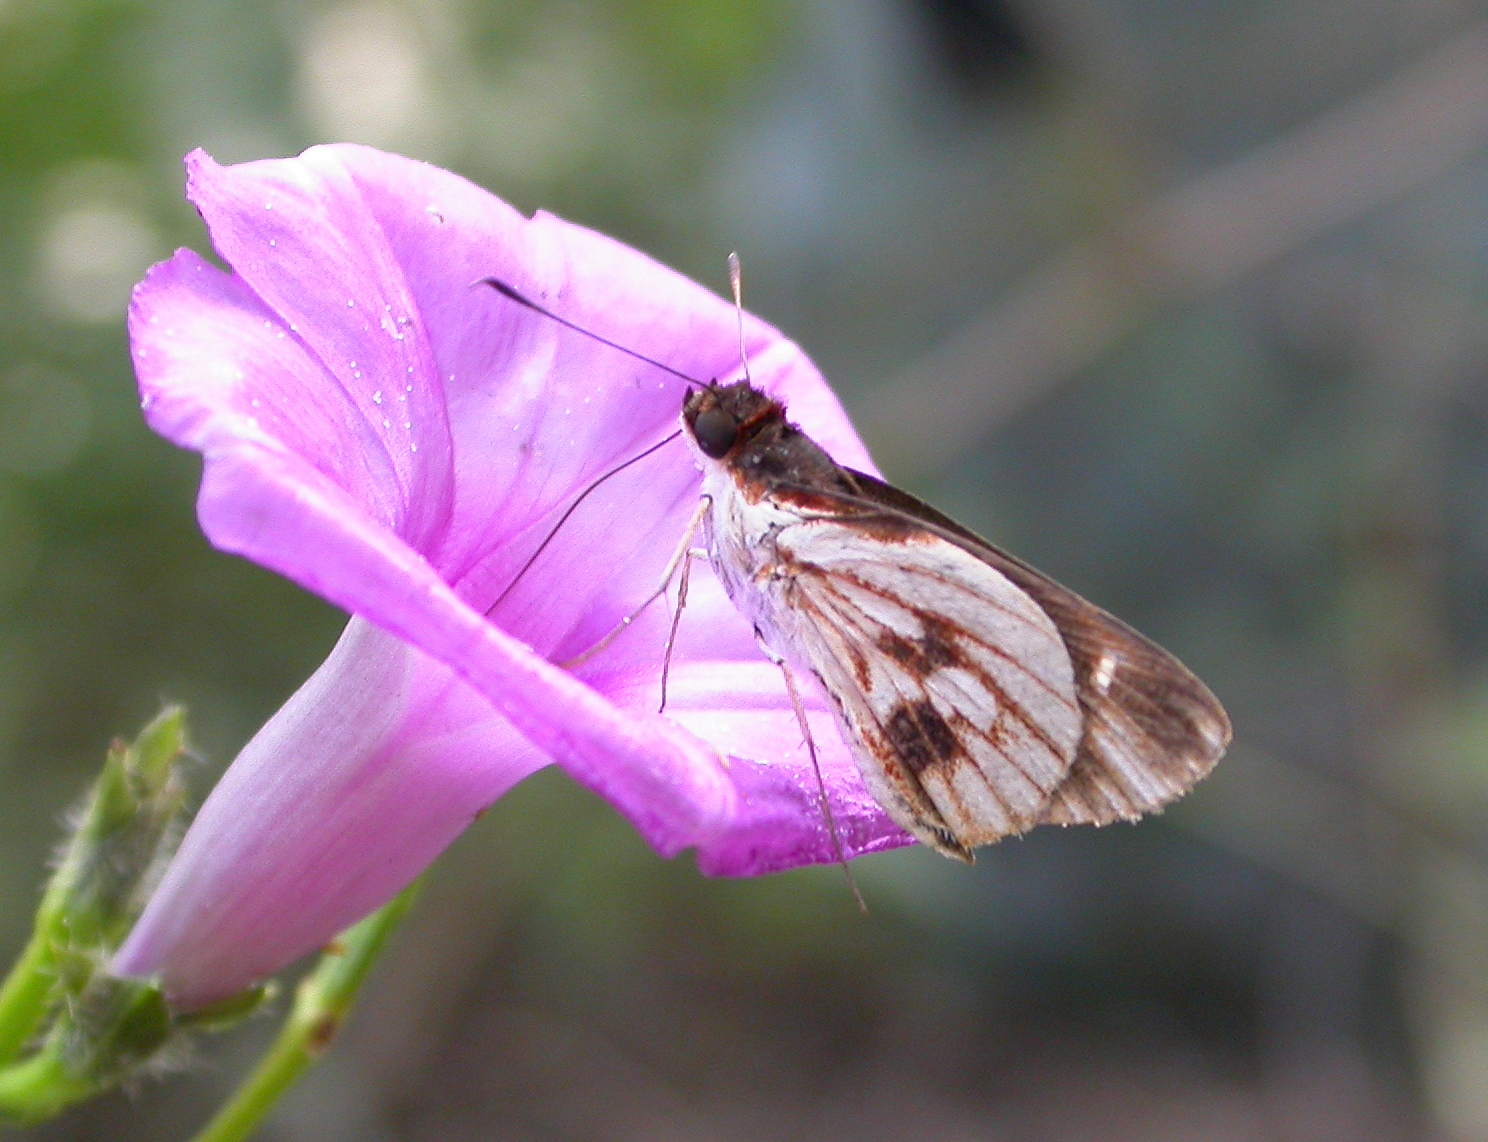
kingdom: Animalia
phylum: Arthropoda
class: Insecta
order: Lepidoptera
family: Hesperiidae
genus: Troyus
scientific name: Troyus fantasos
